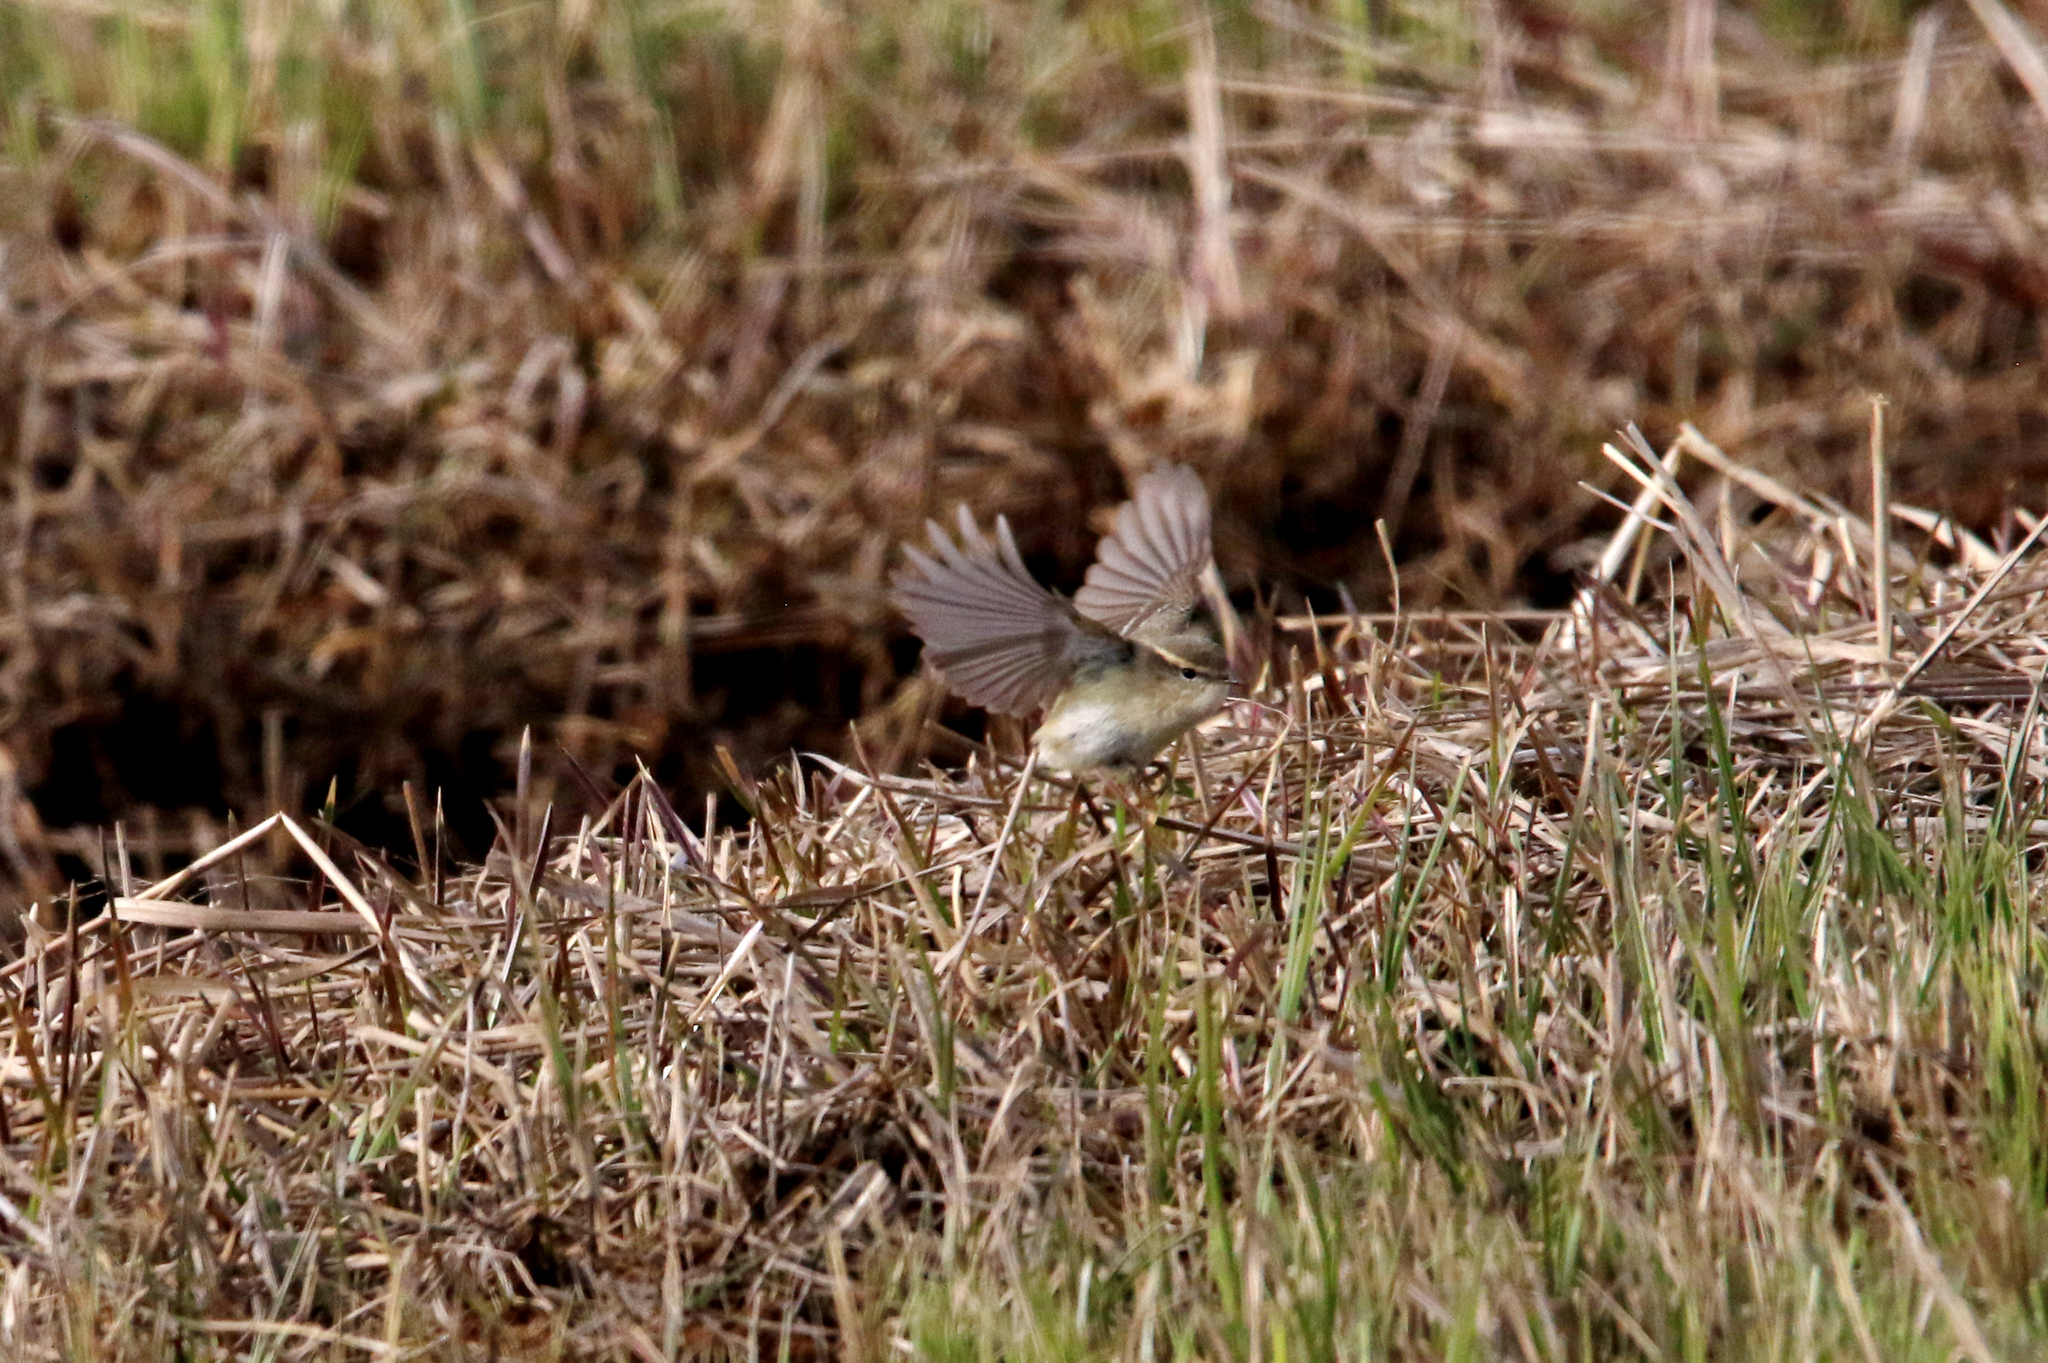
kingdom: Animalia
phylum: Chordata
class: Aves
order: Passeriformes
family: Phylloscopidae
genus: Phylloscopus
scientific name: Phylloscopus humei
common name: Hume's leaf warbler
